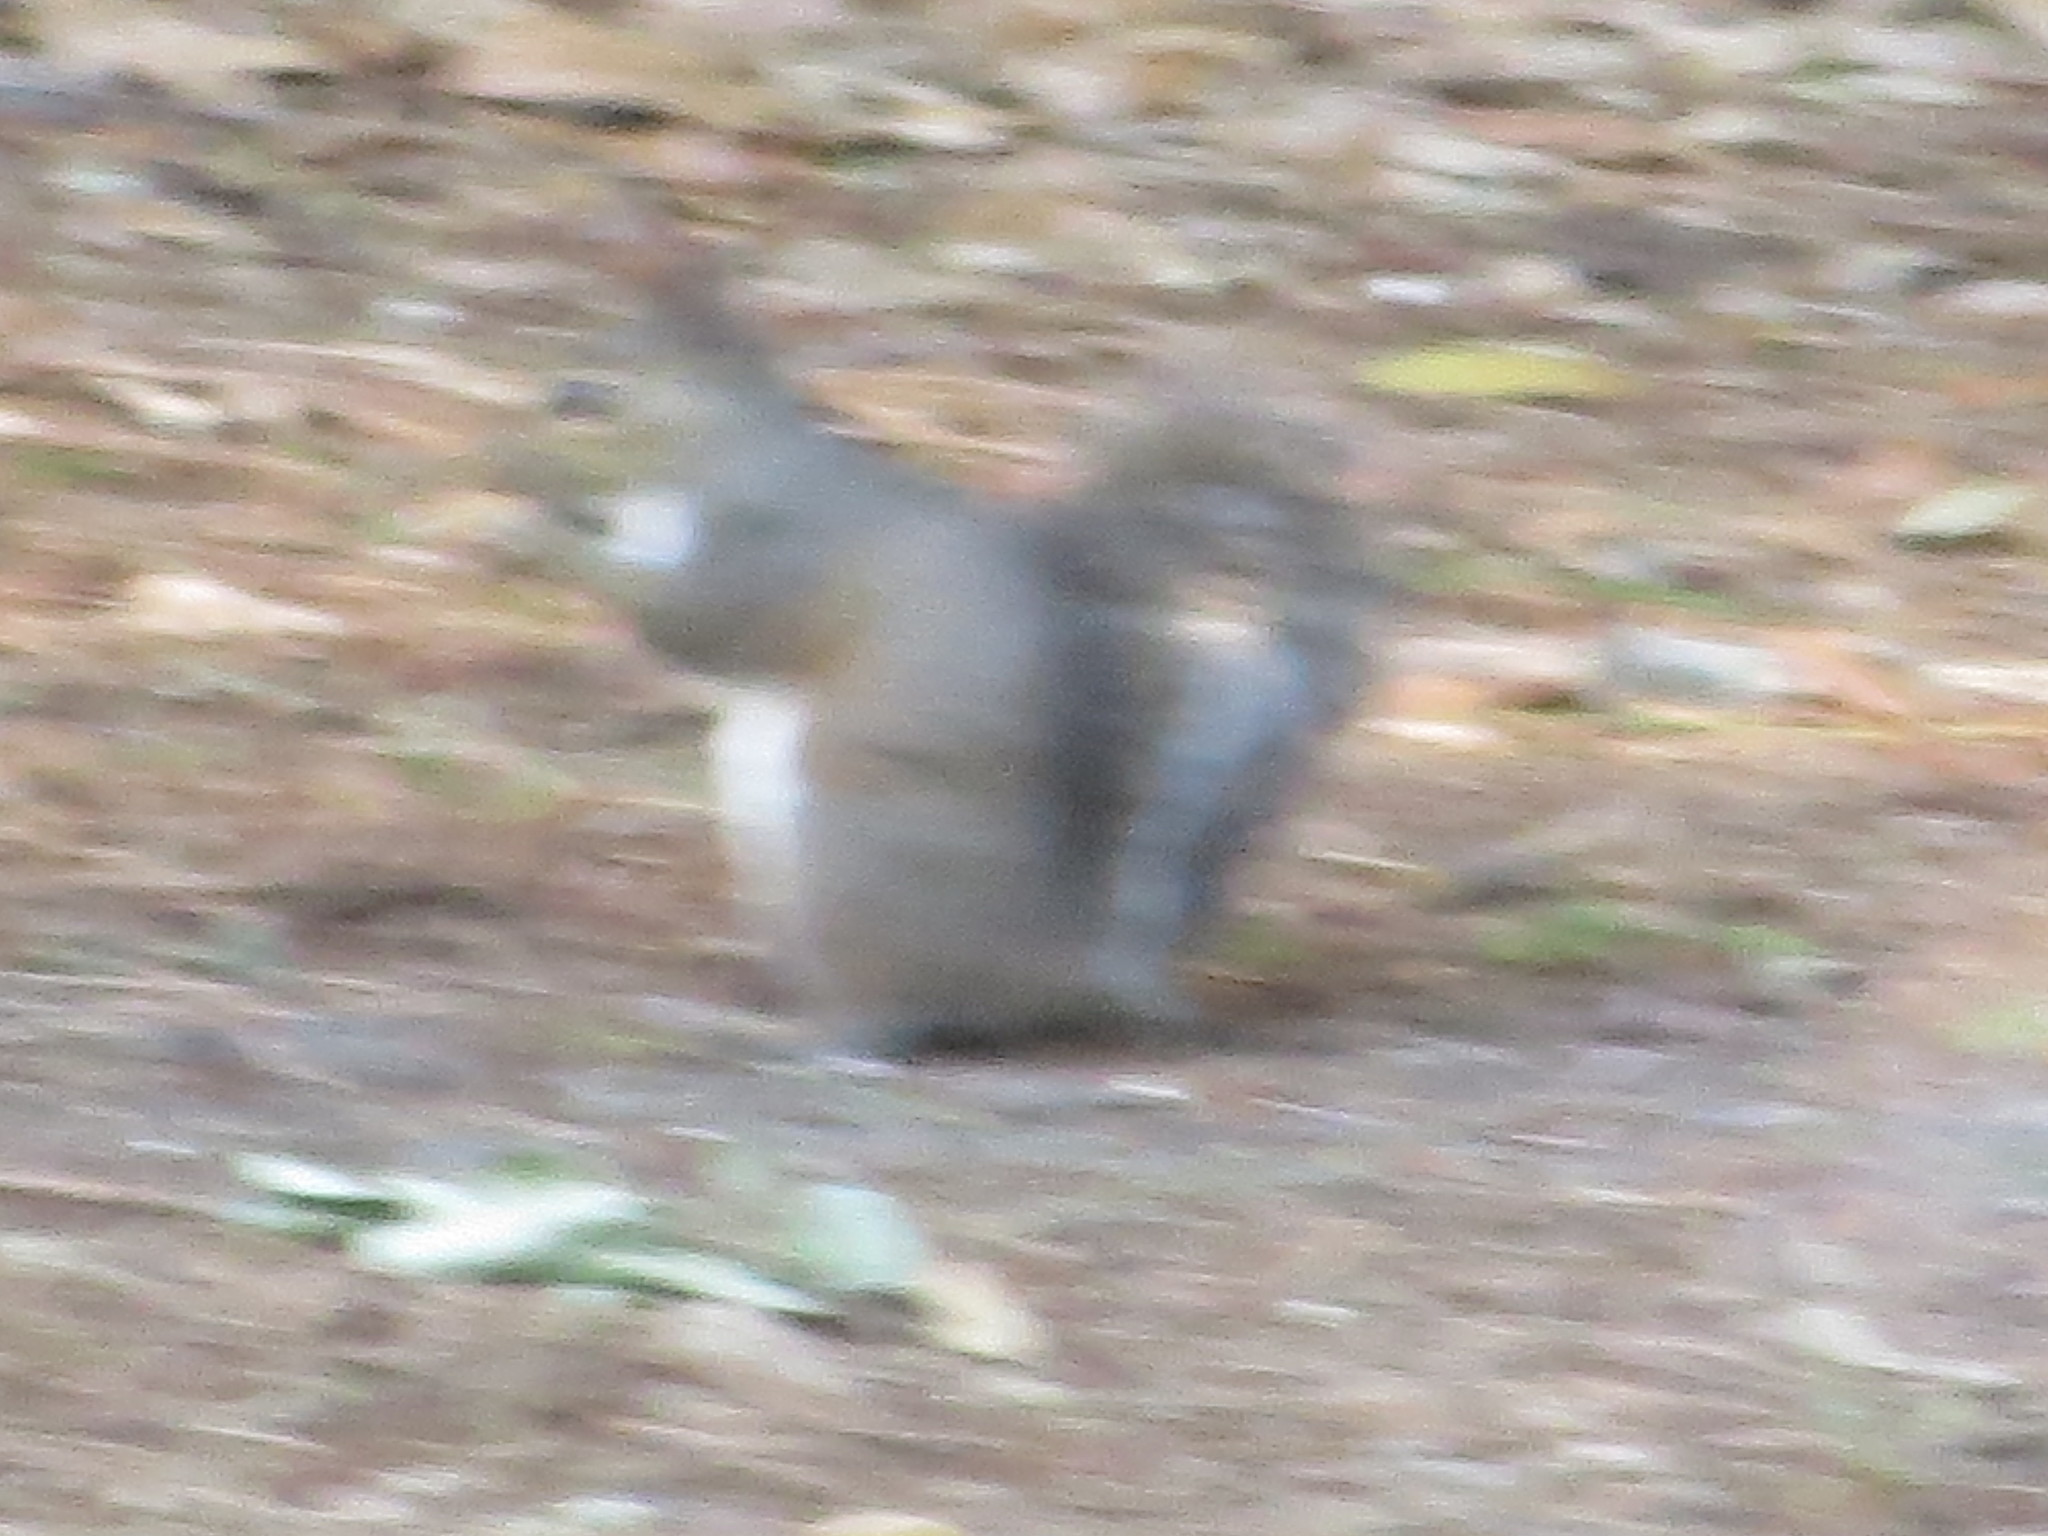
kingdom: Animalia
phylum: Chordata
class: Mammalia
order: Rodentia
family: Sciuridae
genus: Sciurus
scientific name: Sciurus carolinensis
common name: Eastern gray squirrel
